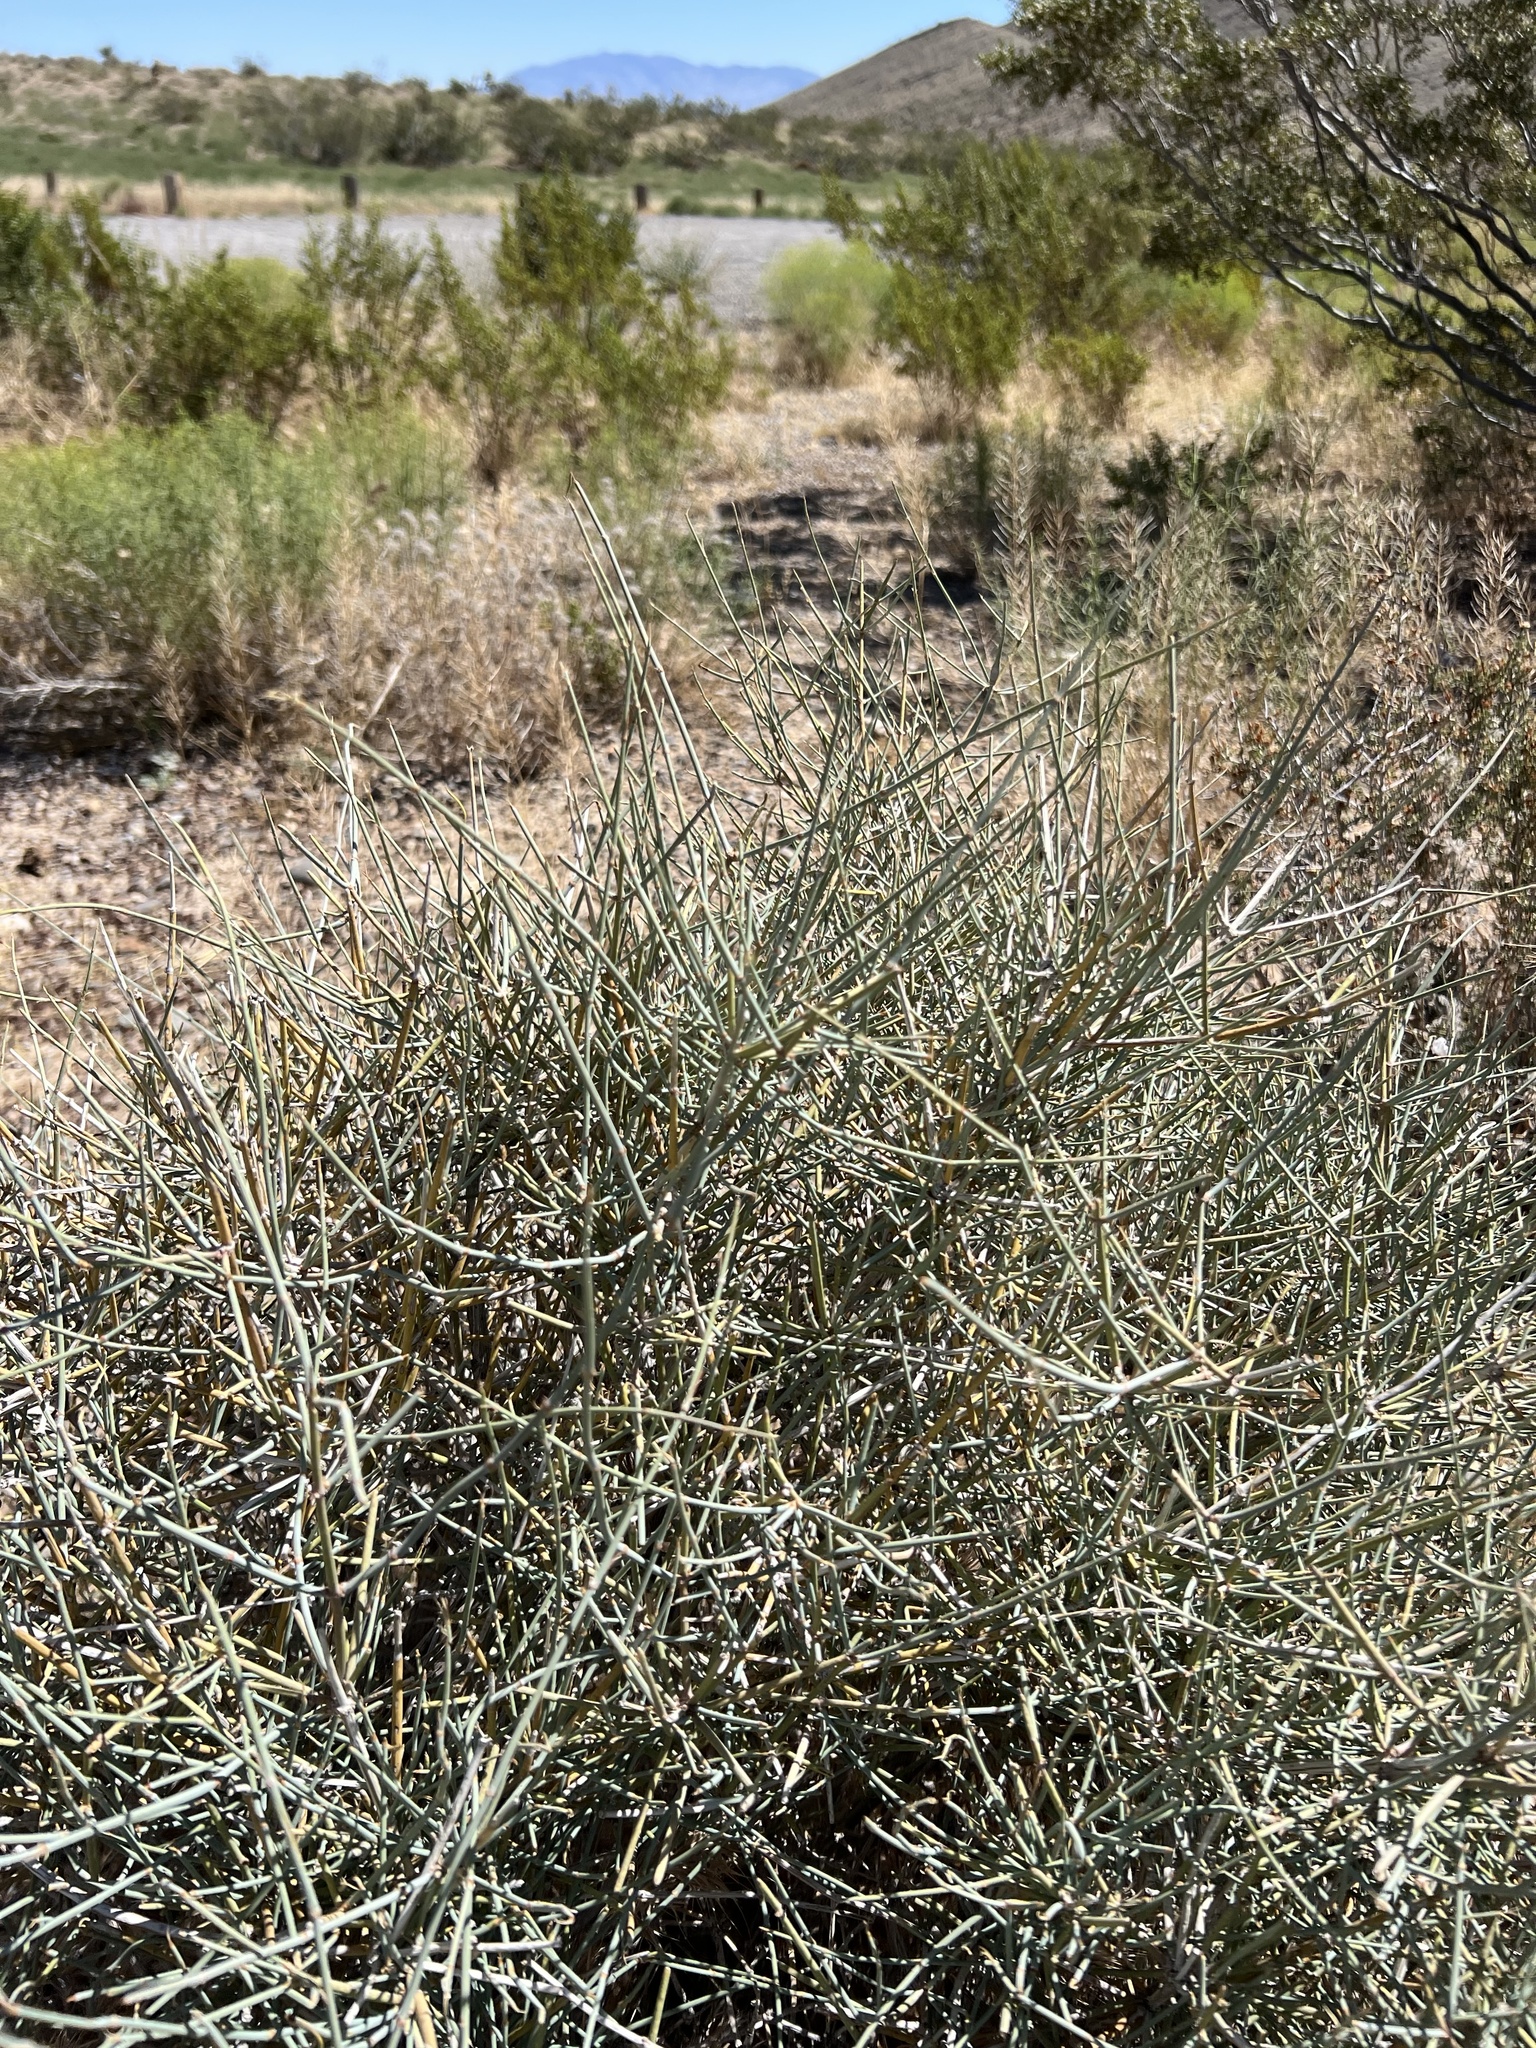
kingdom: Plantae
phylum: Tracheophyta
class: Gnetopsida
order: Ephedrales
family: Ephedraceae
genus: Ephedra
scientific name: Ephedra nevadensis
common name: Gray ephedra
